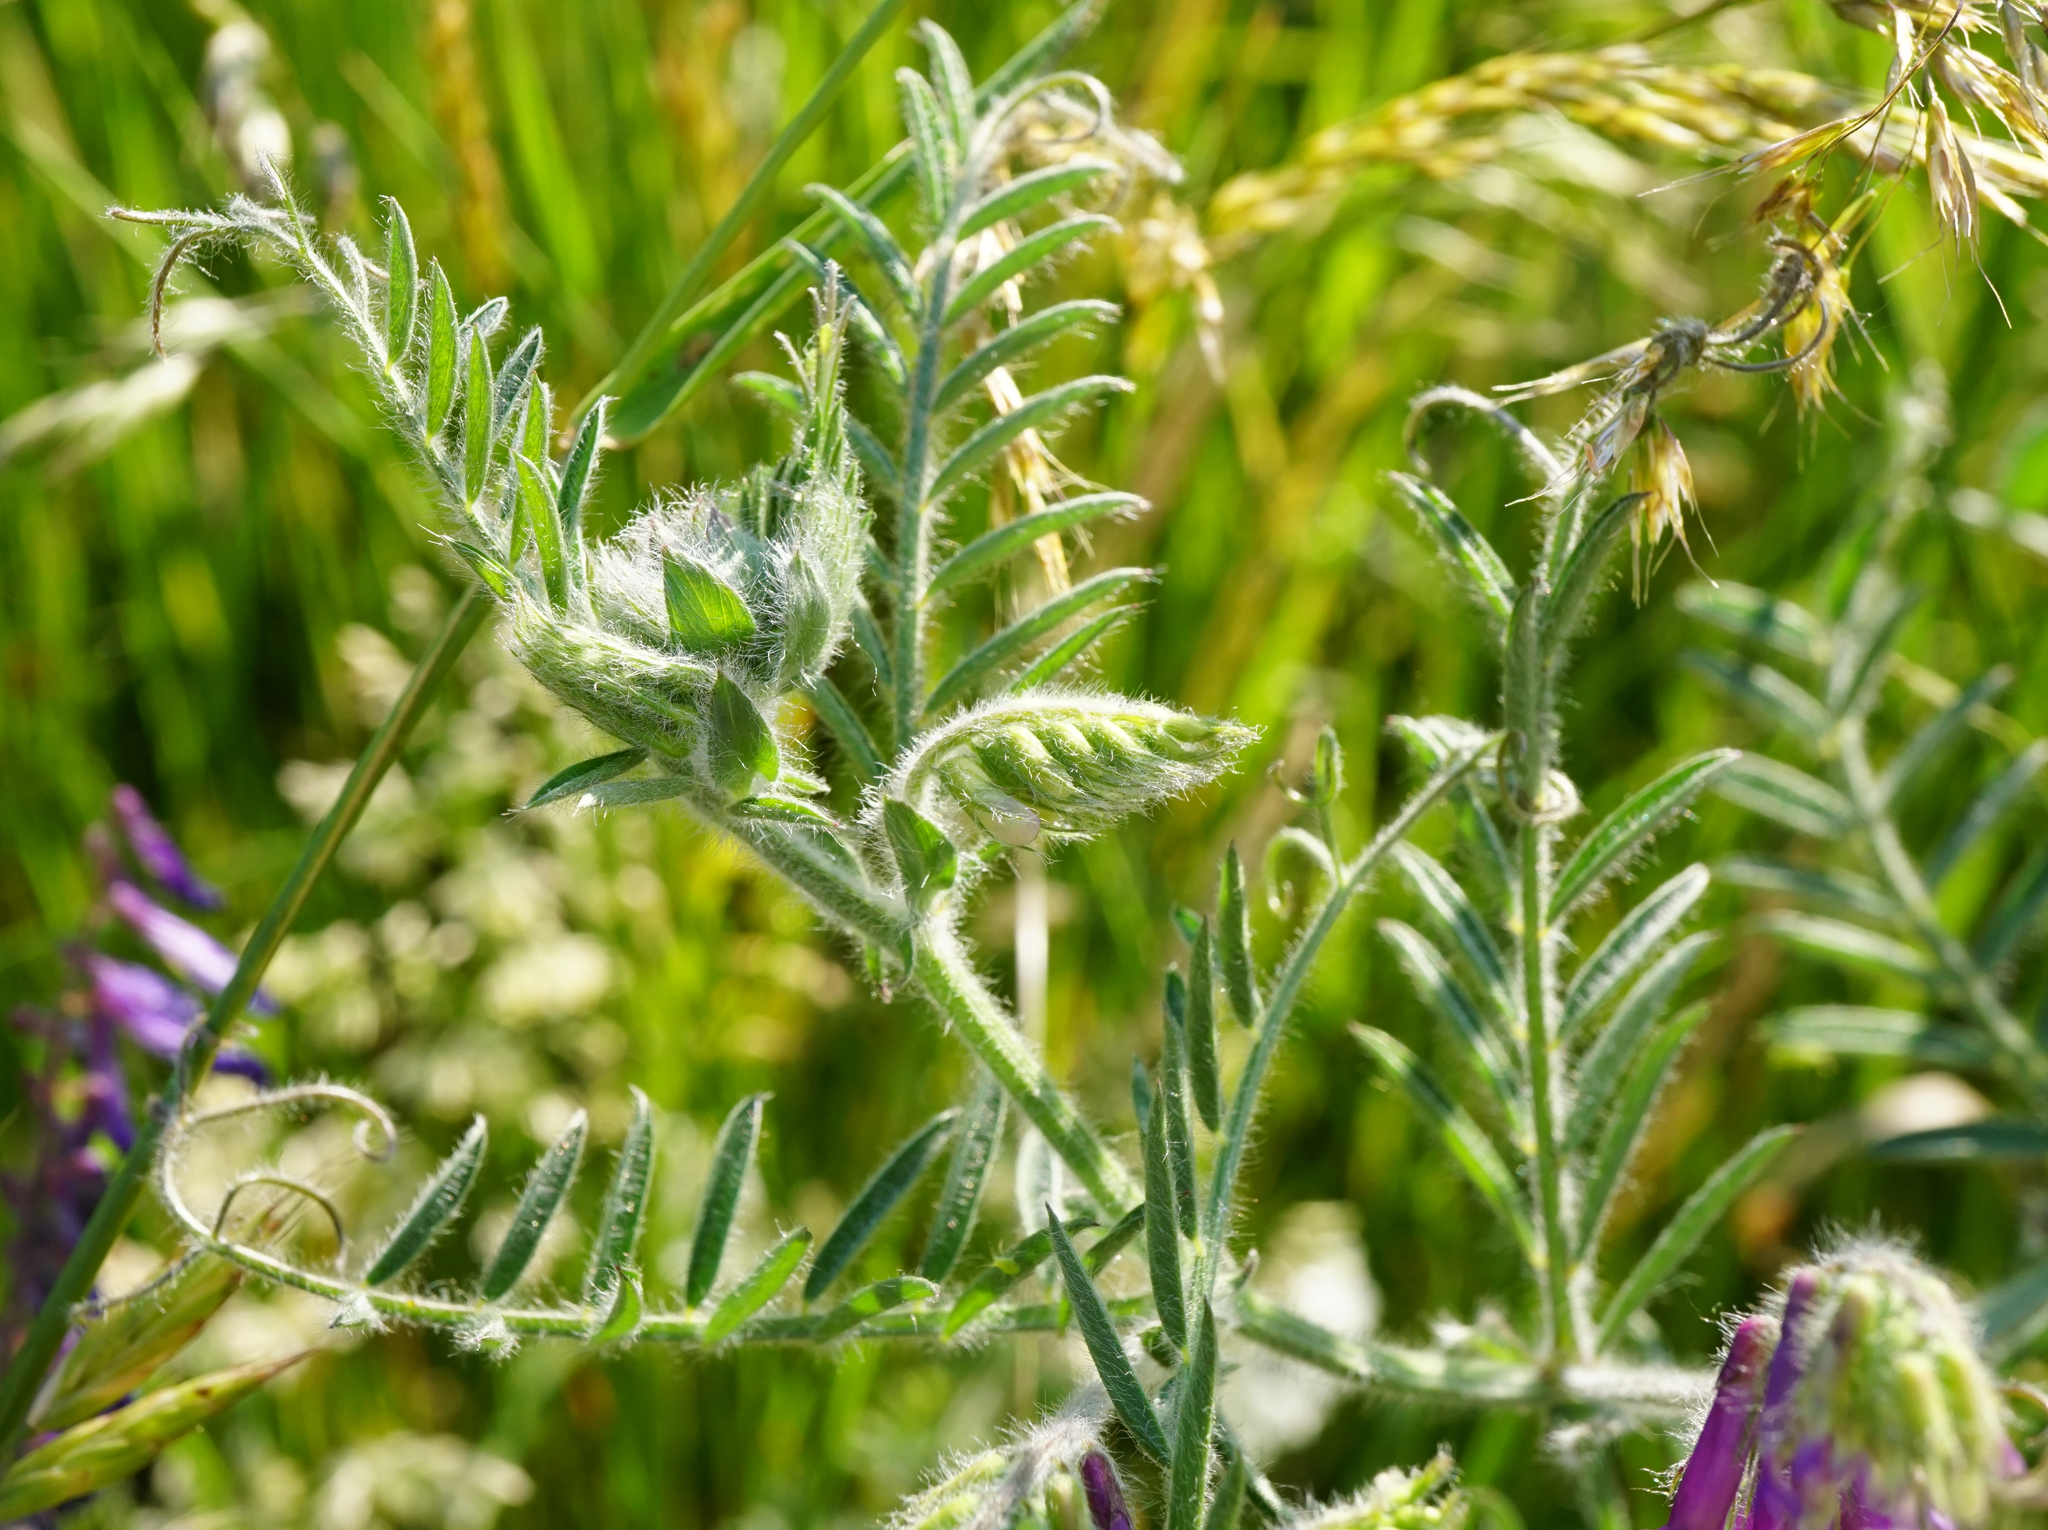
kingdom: Plantae
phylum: Tracheophyta
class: Magnoliopsida
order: Fabales
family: Fabaceae
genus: Vicia
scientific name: Vicia villosa
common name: Fodder vetch
